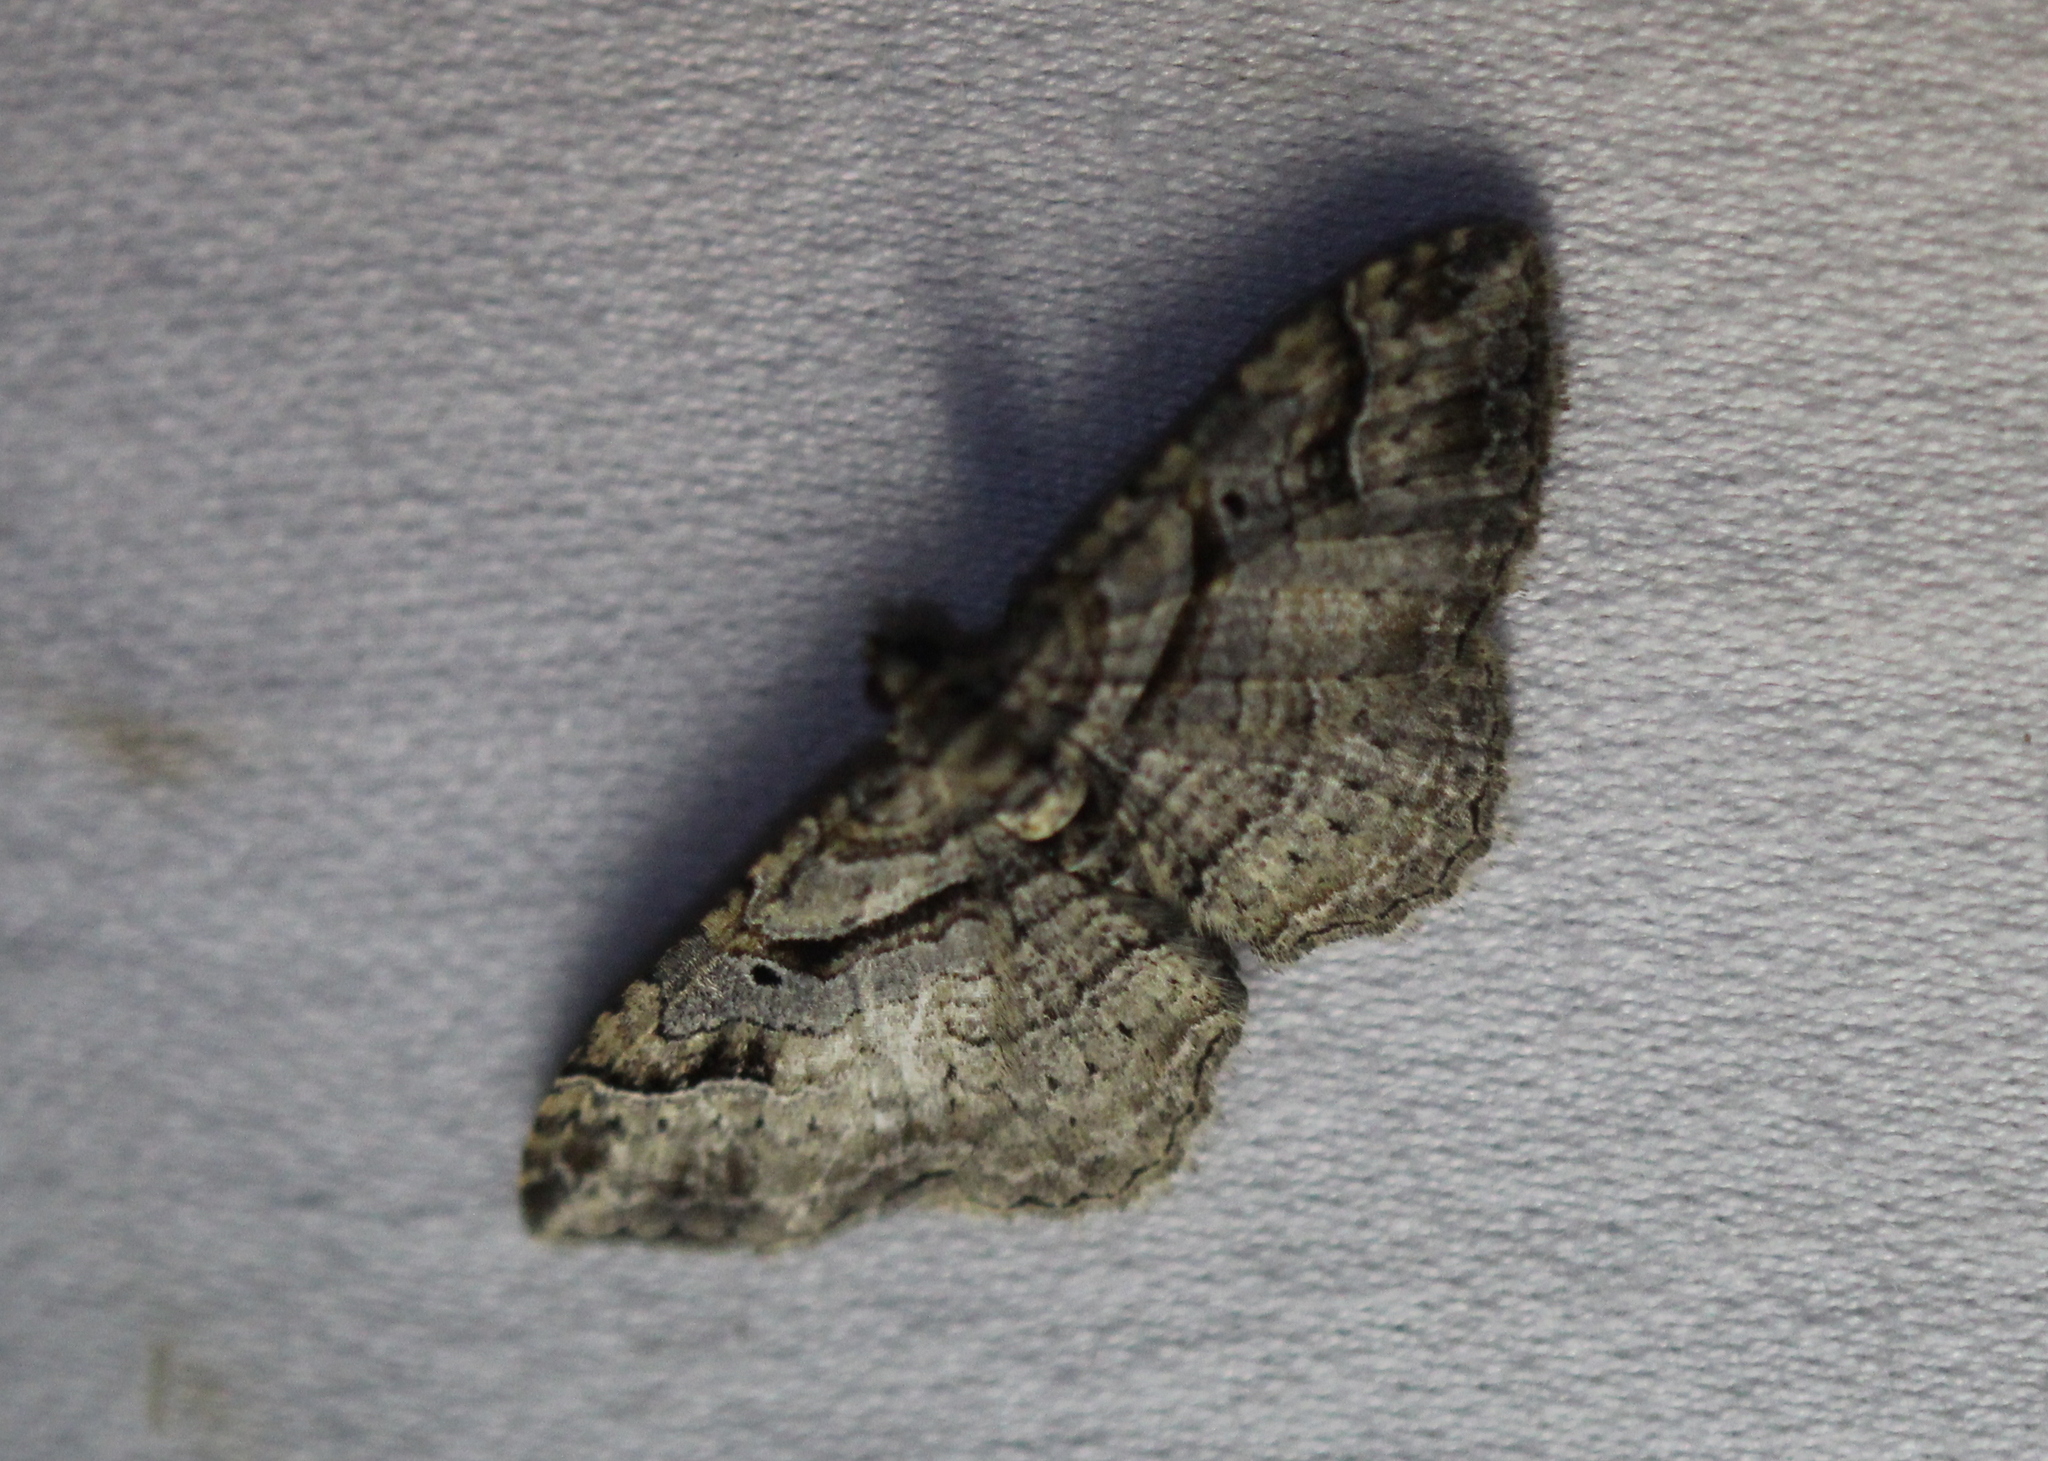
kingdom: Animalia
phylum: Arthropoda
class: Insecta
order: Lepidoptera
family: Geometridae
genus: Costaconvexa
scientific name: Costaconvexa centrostrigaria
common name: Bent-line carpet
